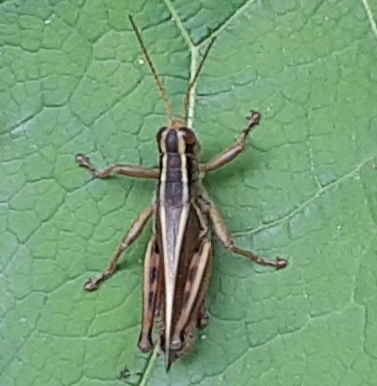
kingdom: Animalia
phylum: Arthropoda
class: Insecta
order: Orthoptera
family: Acrididae
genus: Melanoplus
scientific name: Melanoplus bivittatus
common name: Two-striped grasshopper
